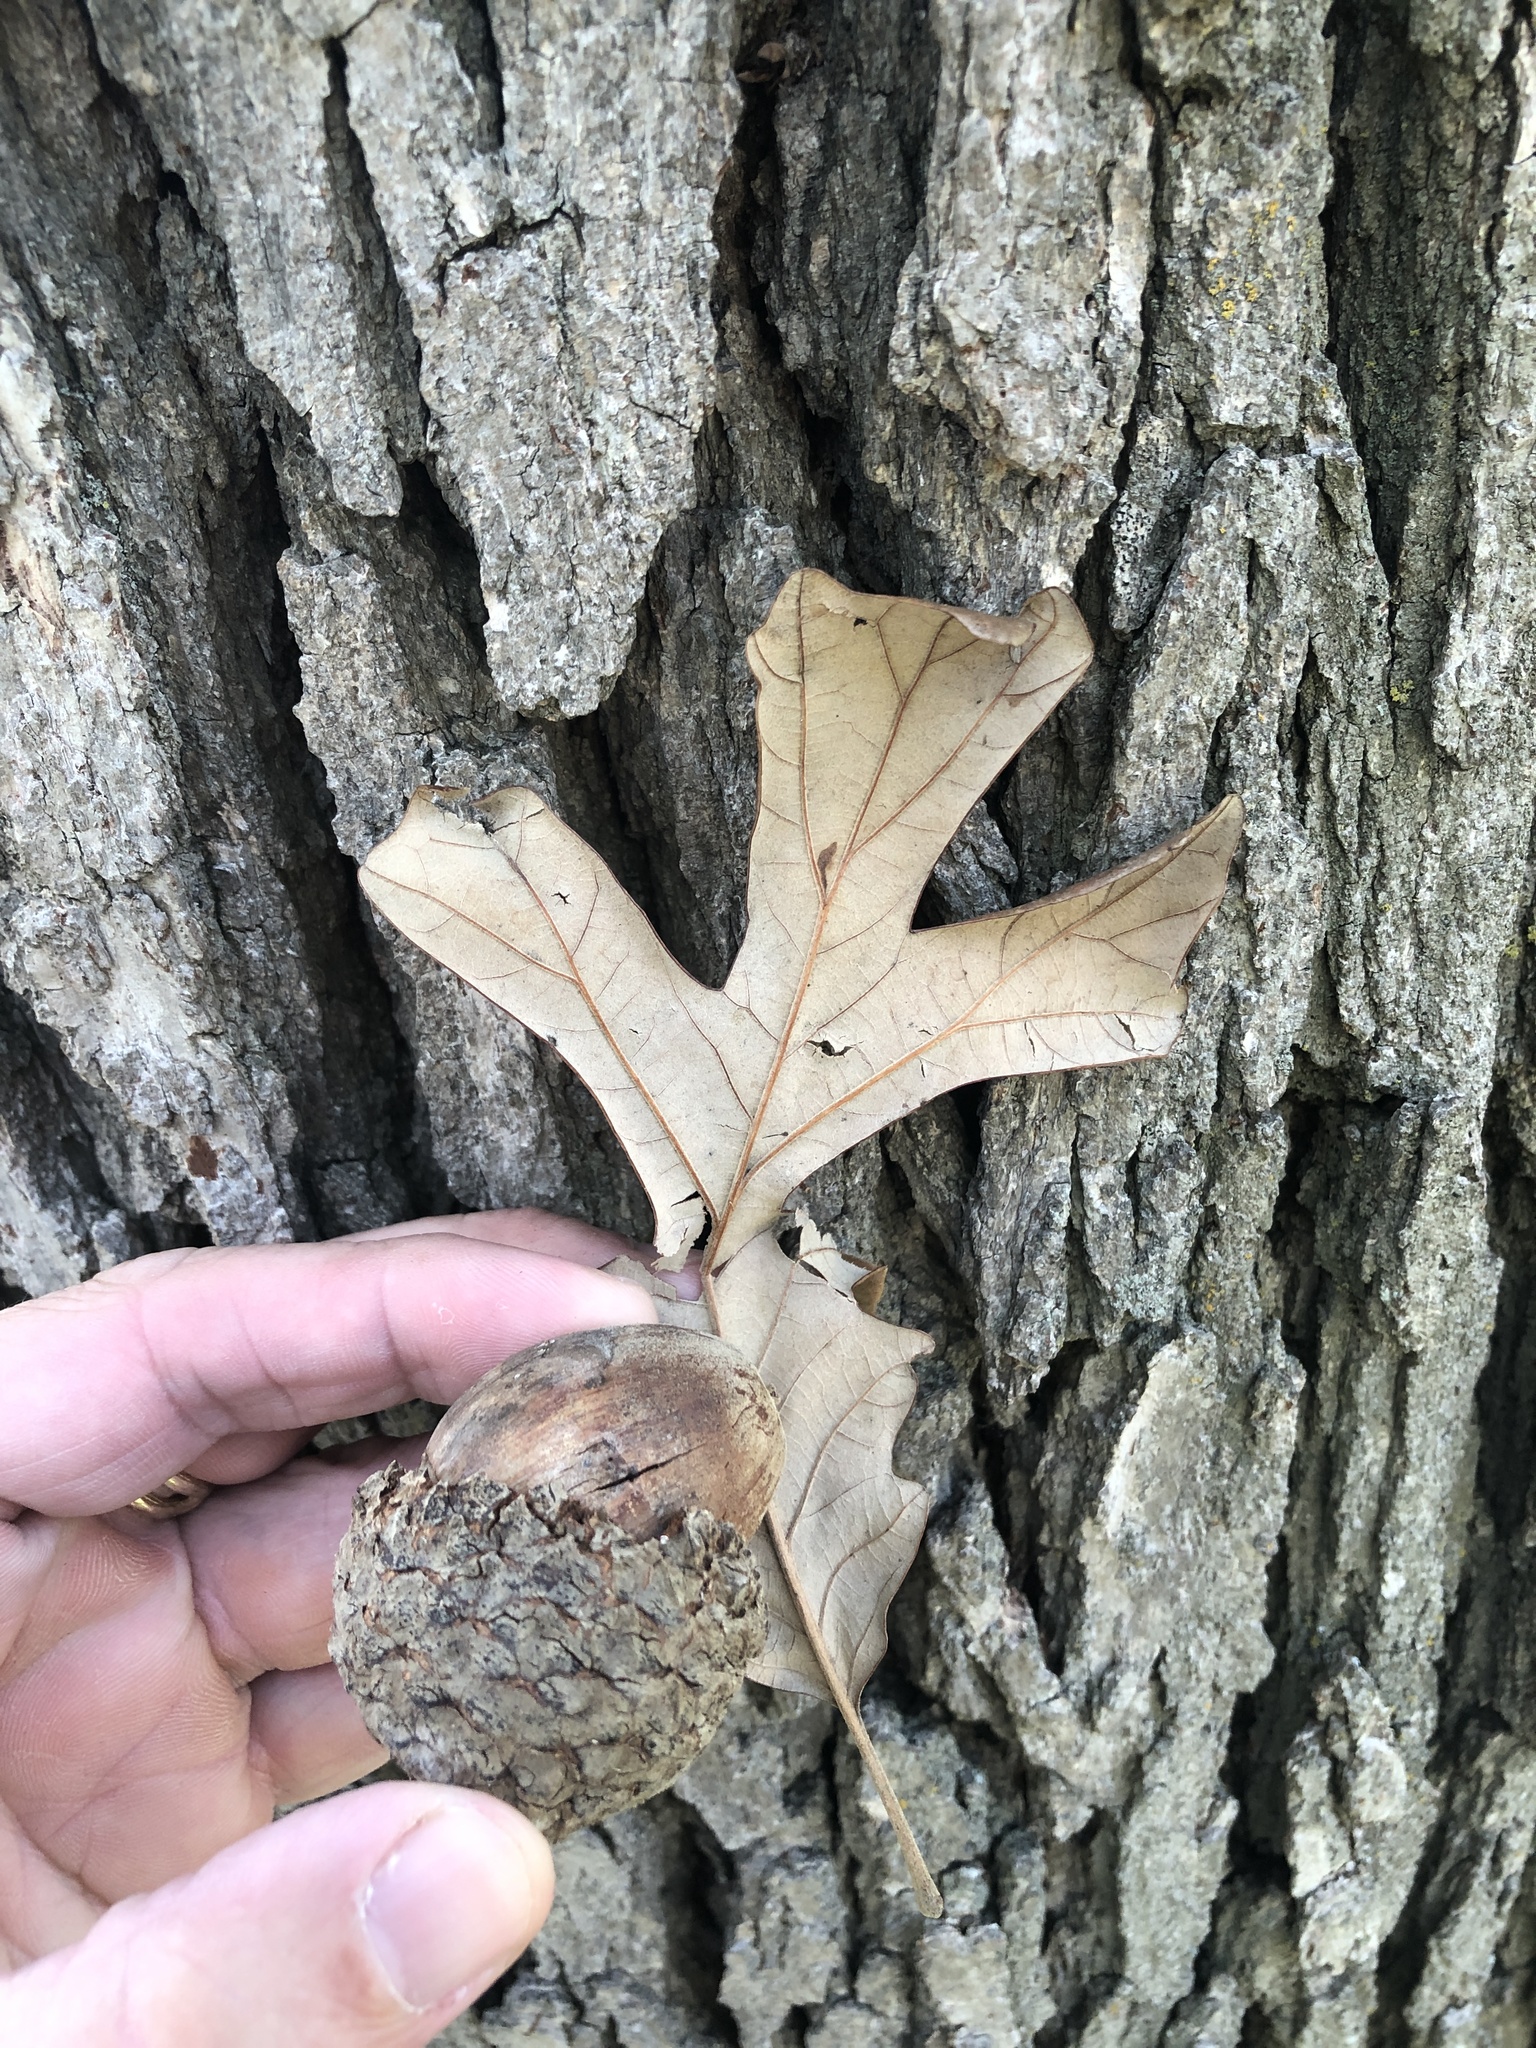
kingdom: Plantae
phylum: Tracheophyta
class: Magnoliopsida
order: Fagales
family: Fagaceae
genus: Quercus
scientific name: Quercus macrocarpa
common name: Bur oak
